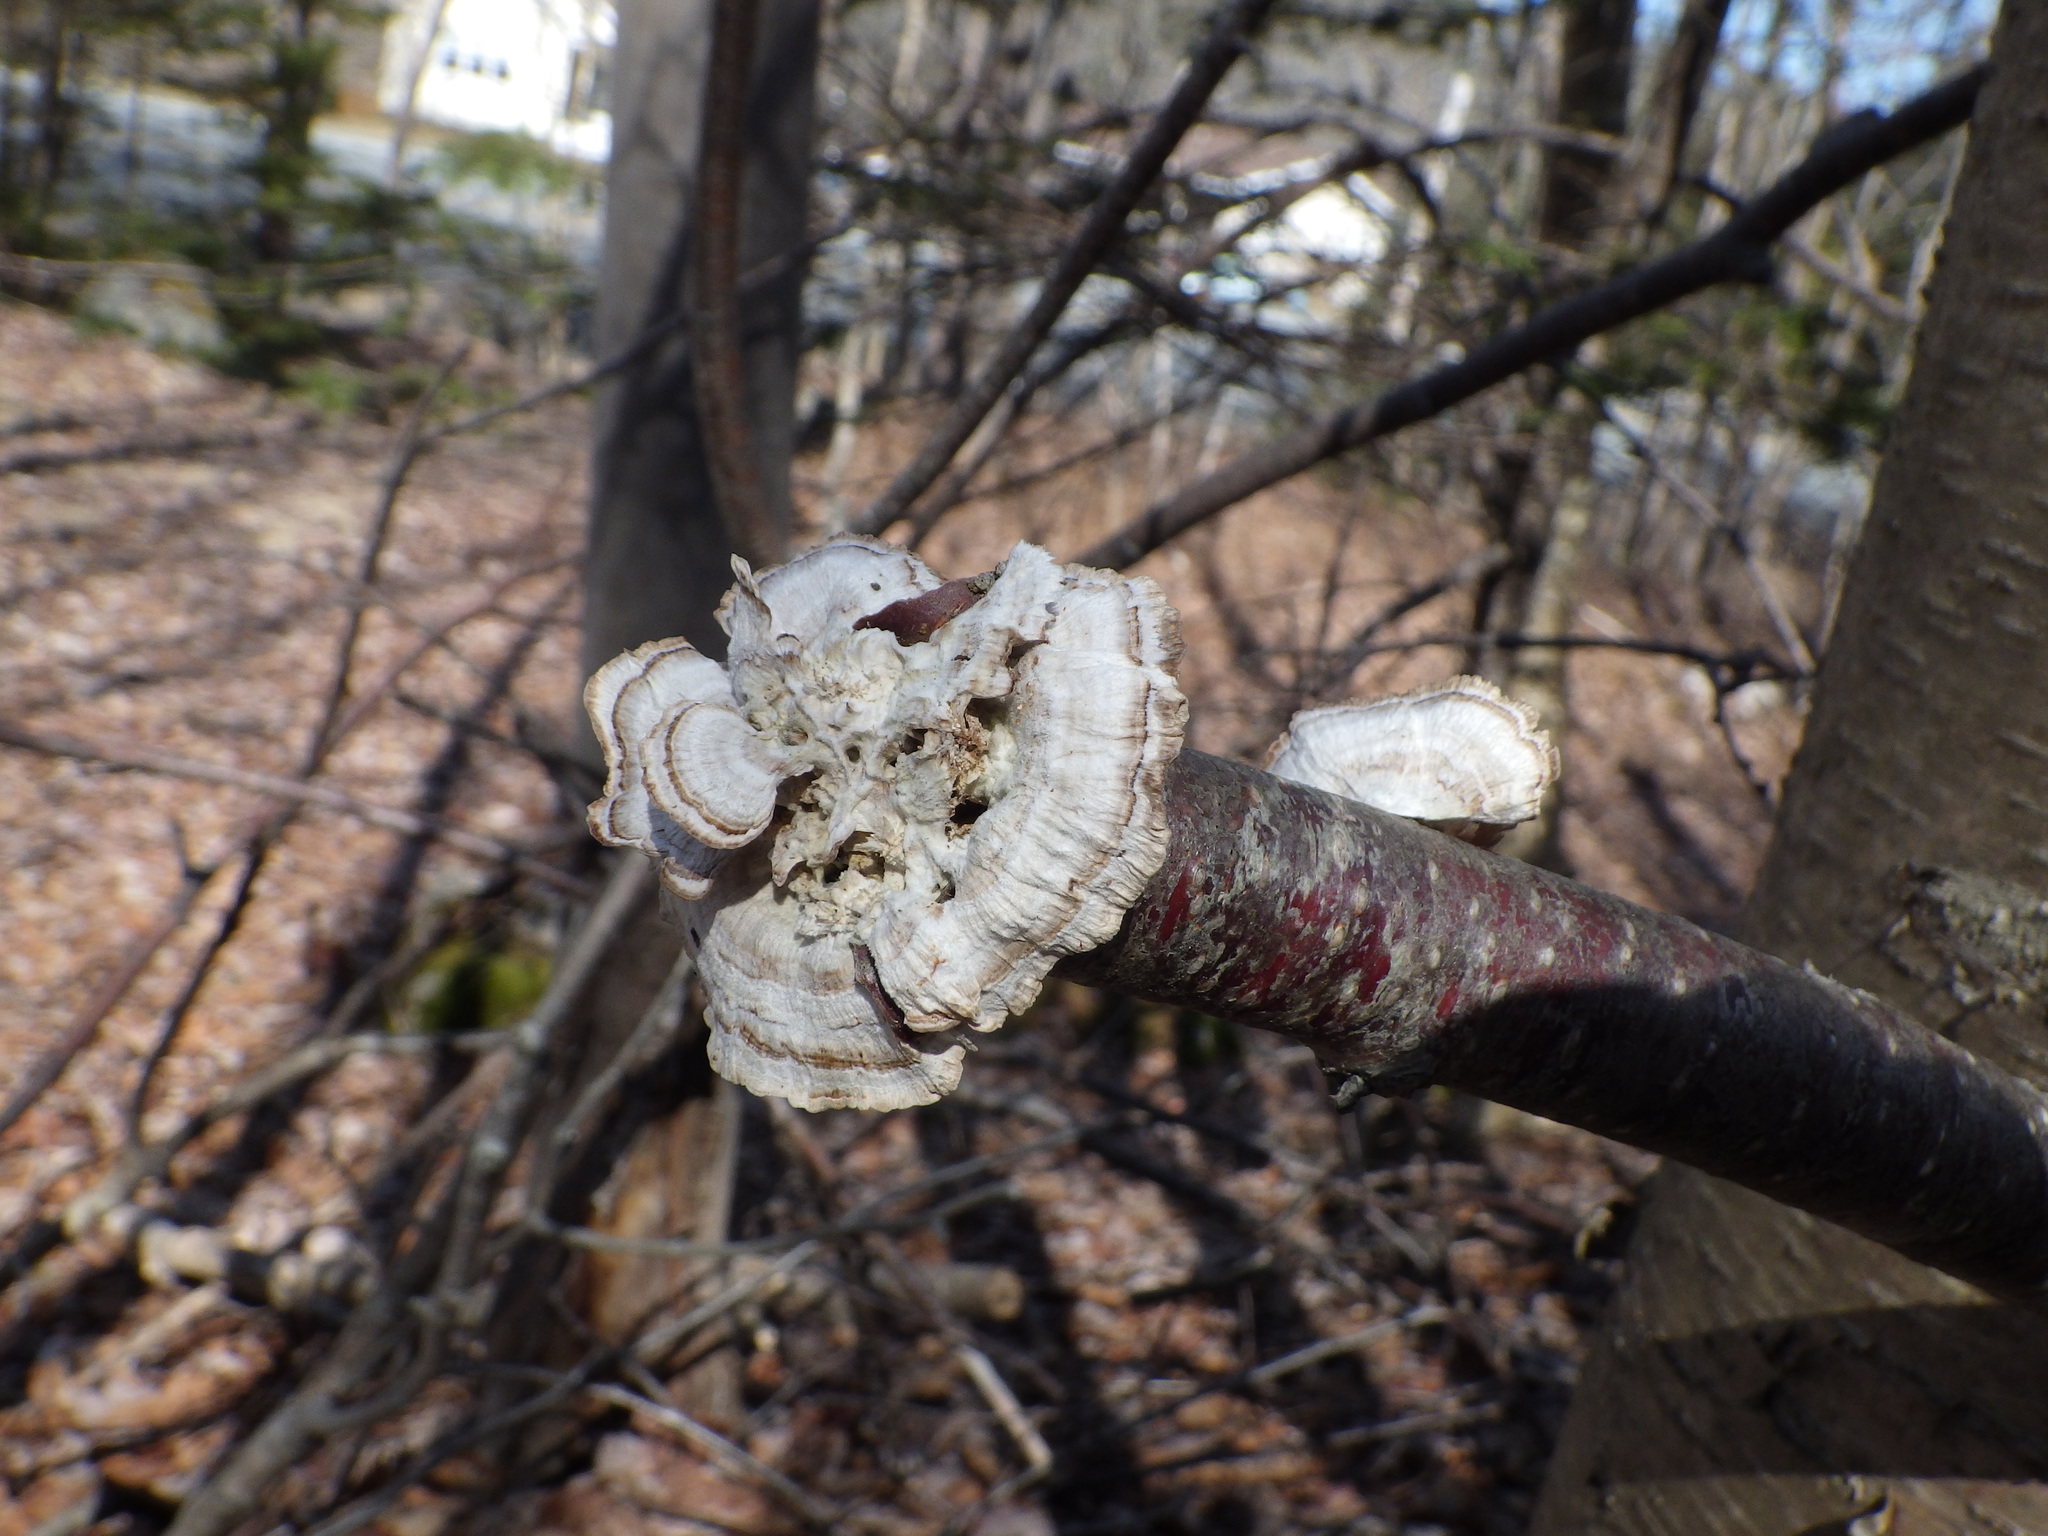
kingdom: Fungi
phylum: Basidiomycota
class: Agaricomycetes
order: Polyporales
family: Polyporaceae
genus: Trametes
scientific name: Trametes versicolor
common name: Turkeytail
